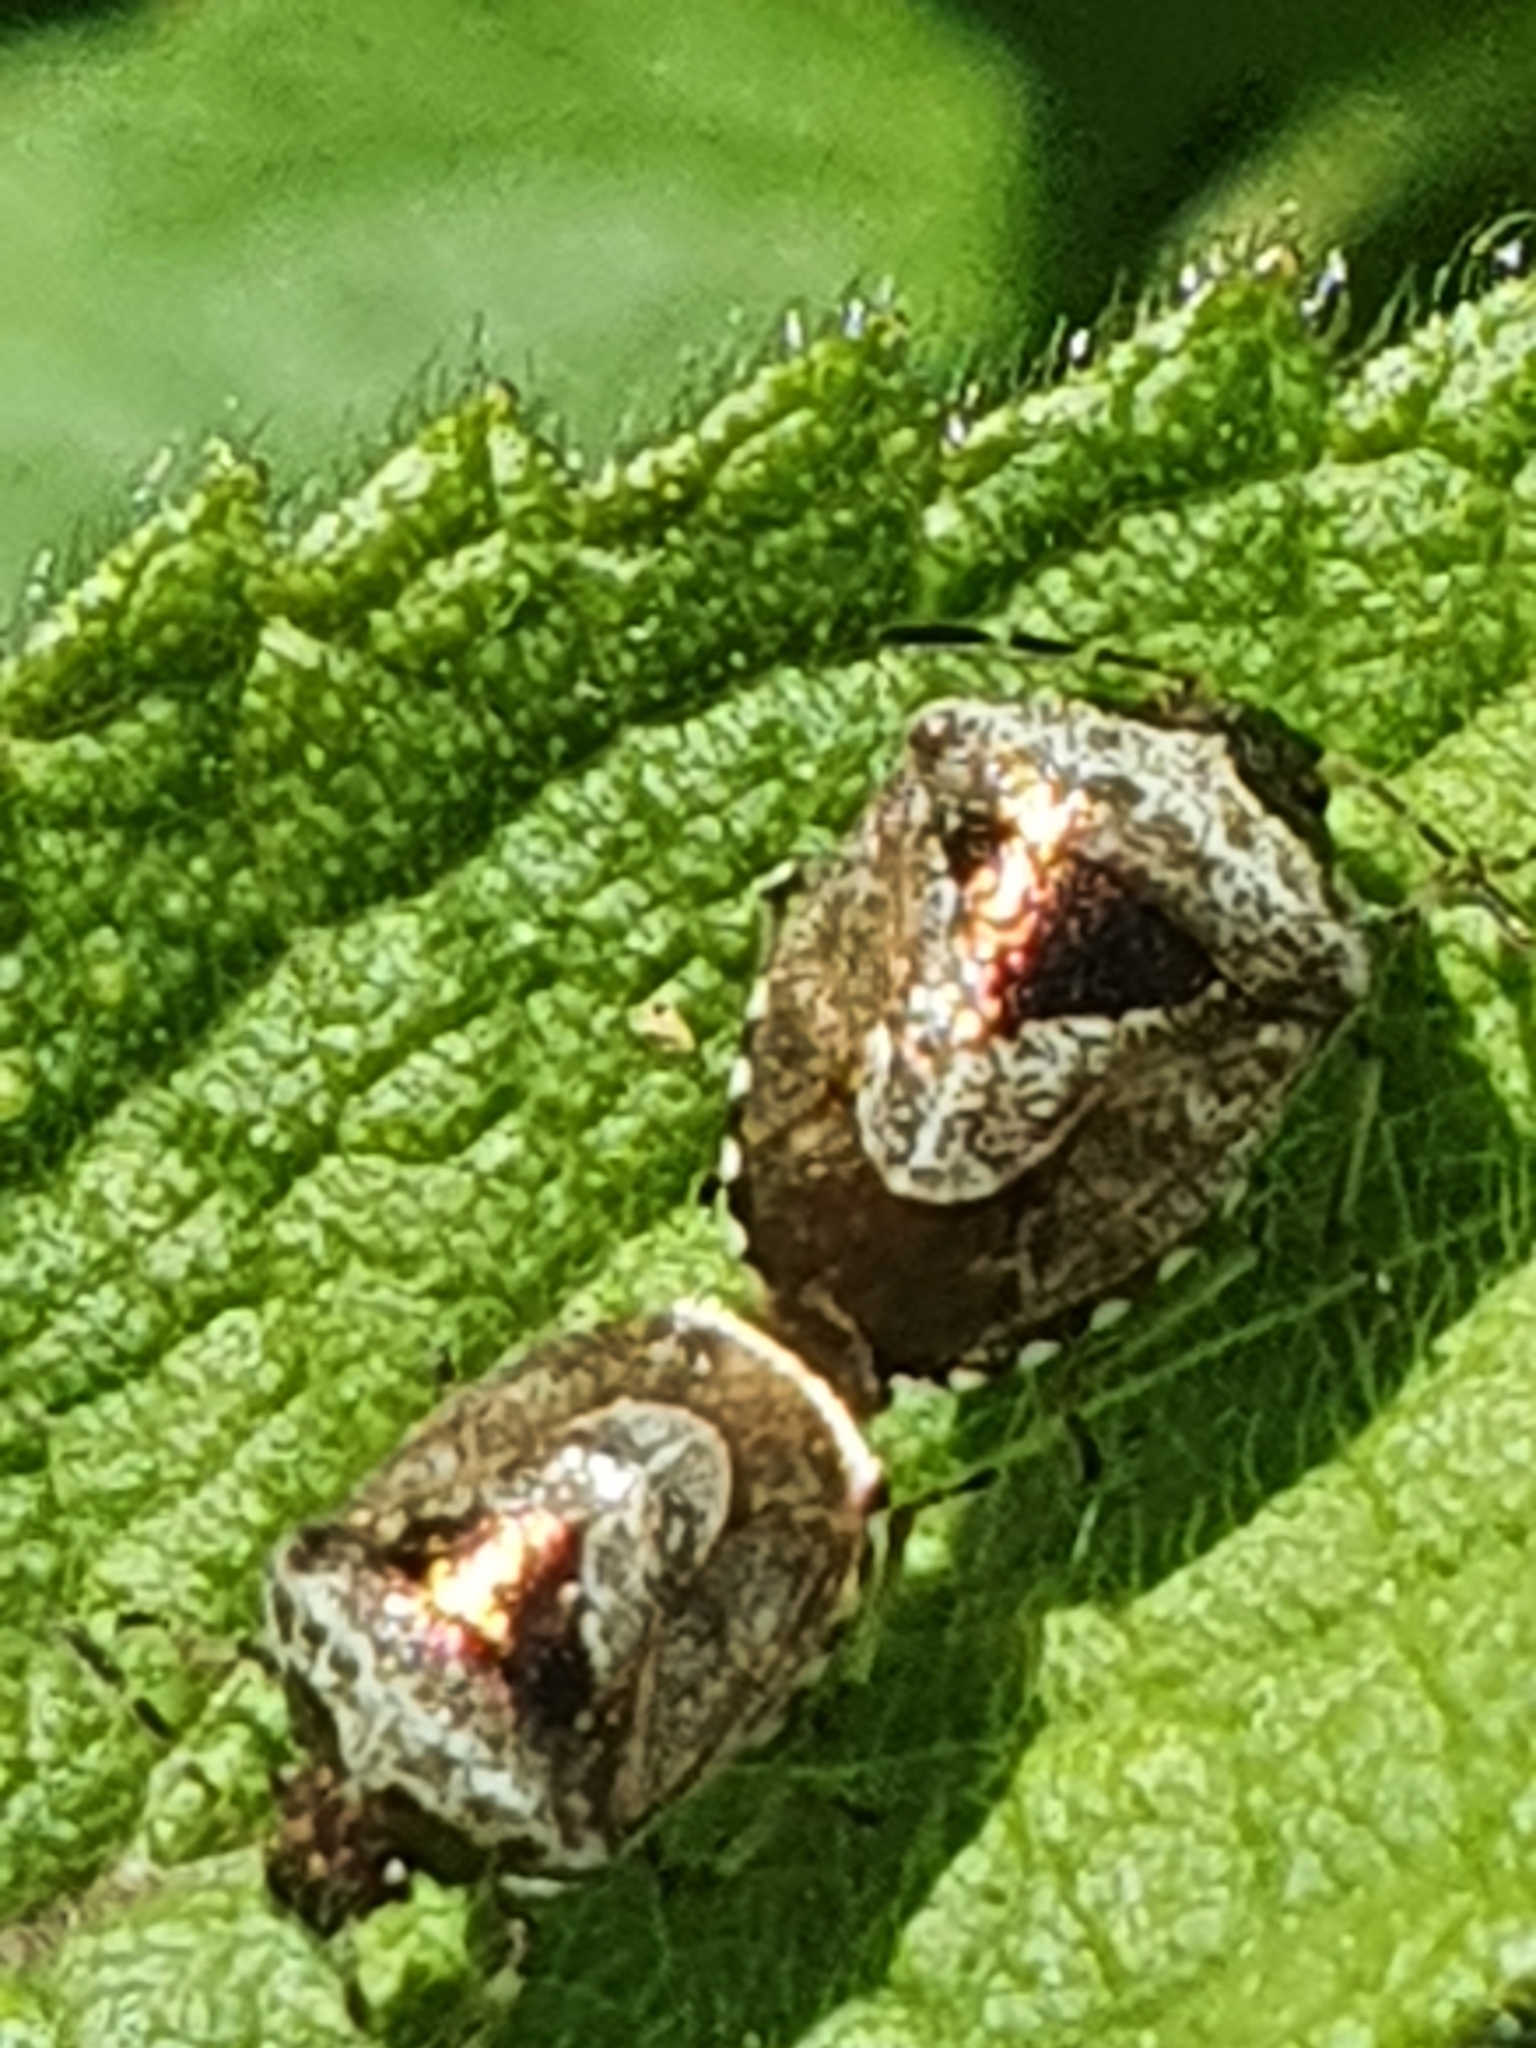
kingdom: Animalia
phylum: Arthropoda
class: Insecta
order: Hemiptera
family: Pentatomidae
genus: Eysarcoris
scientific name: Eysarcoris venustissimus
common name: Woundwort shieldbug
